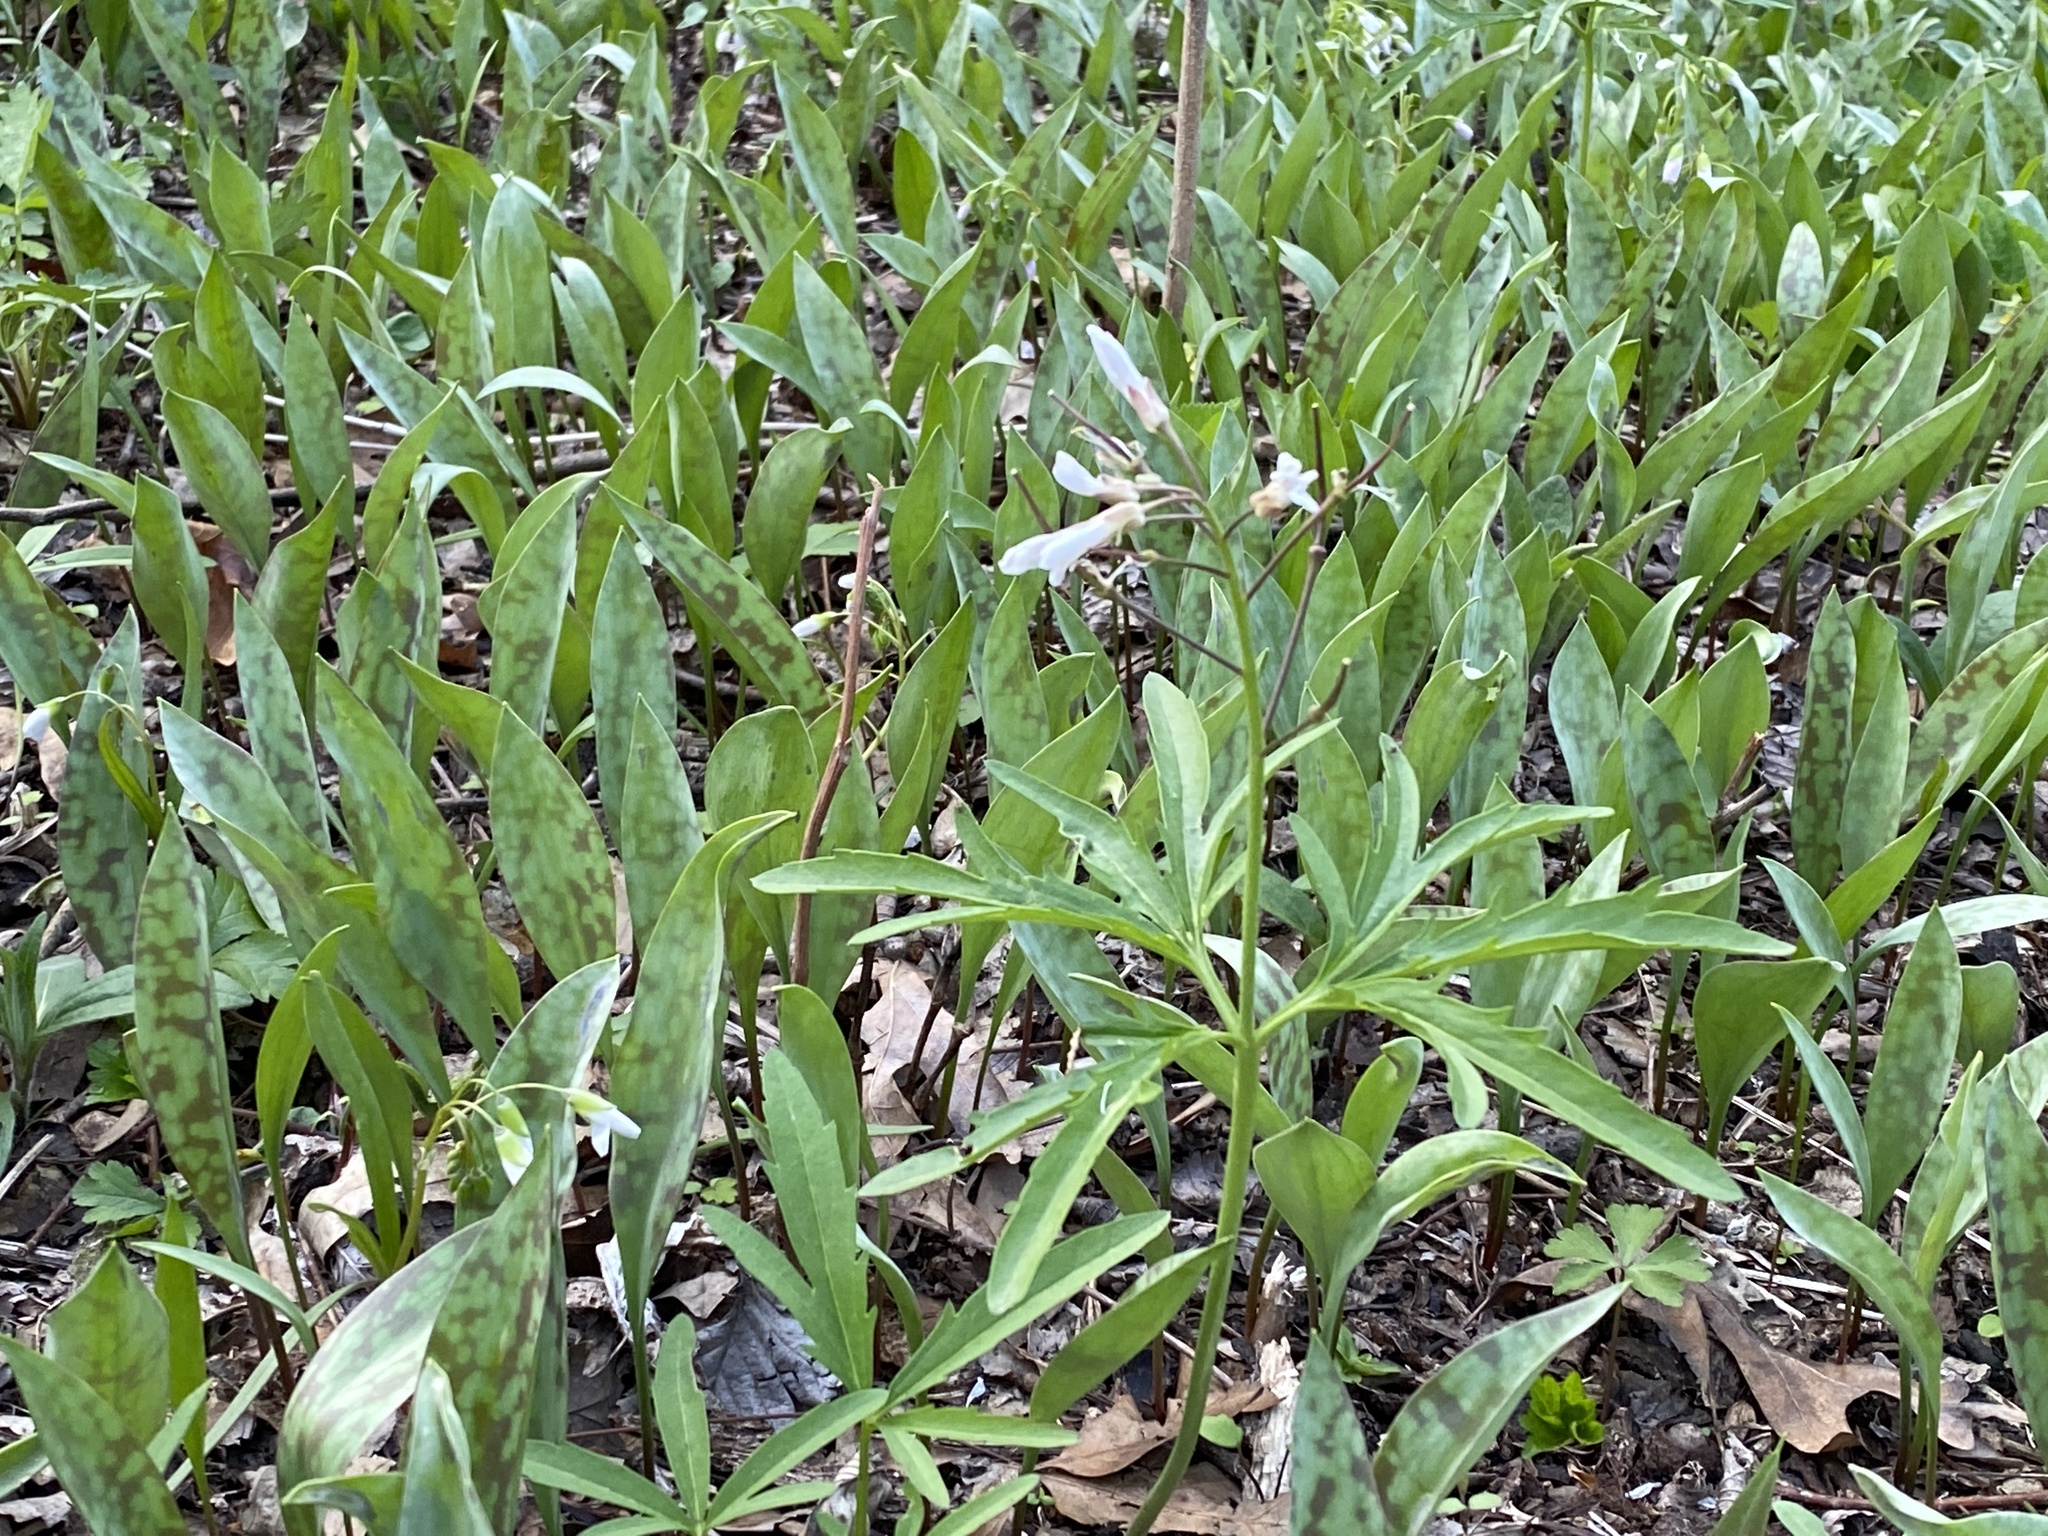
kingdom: Plantae
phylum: Tracheophyta
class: Magnoliopsida
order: Brassicales
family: Brassicaceae
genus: Cardamine
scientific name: Cardamine concatenata
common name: Cut-leaf toothcup
